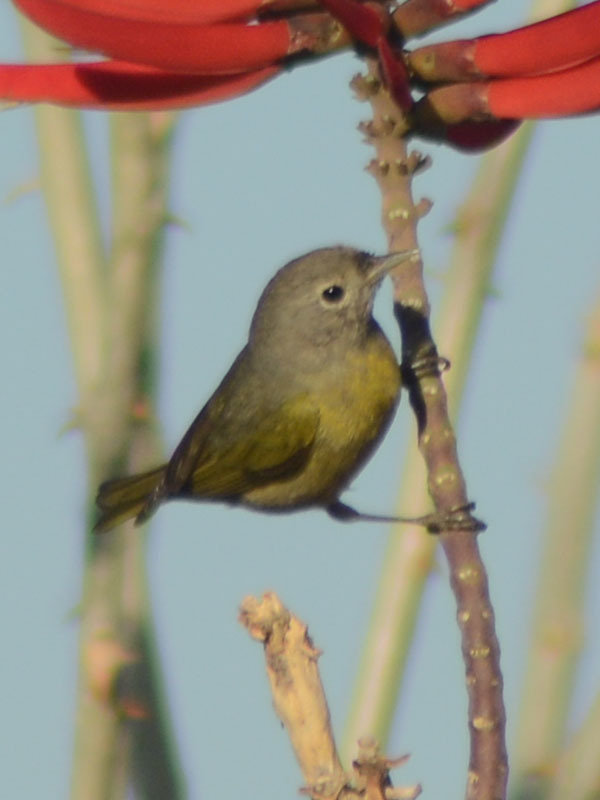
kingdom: Animalia
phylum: Chordata
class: Aves
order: Passeriformes
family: Parulidae
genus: Leiothlypis
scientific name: Leiothlypis ruficapilla
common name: Nashville warbler
